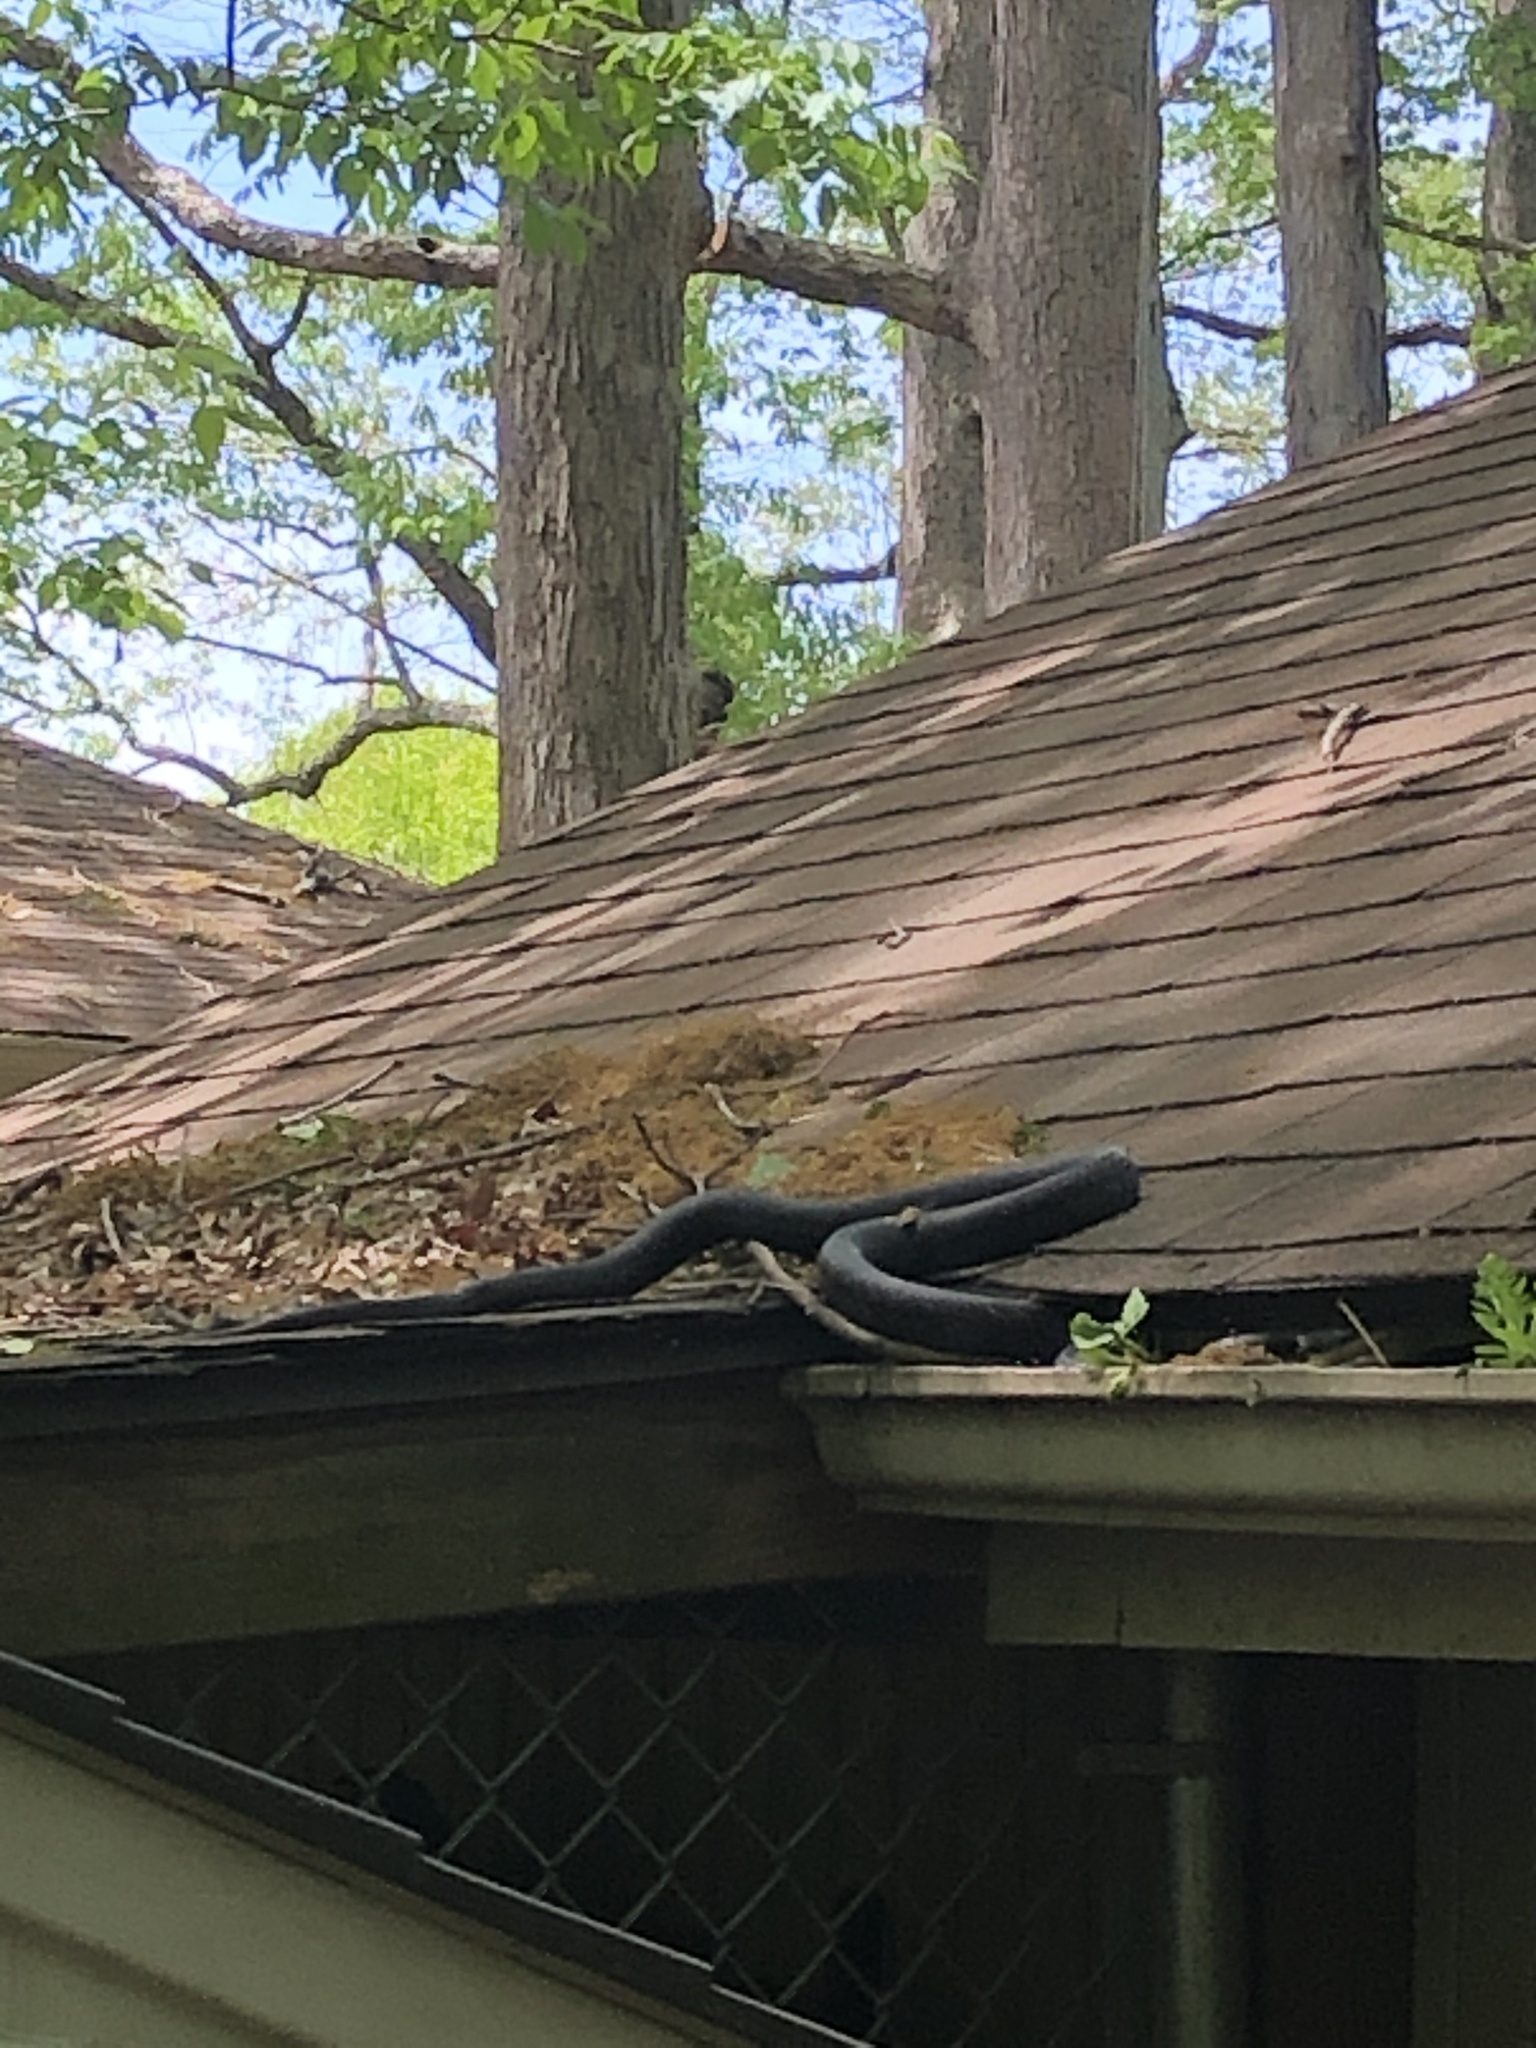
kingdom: Animalia
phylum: Chordata
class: Squamata
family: Colubridae
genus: Pantherophis
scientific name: Pantherophis alleghaniensis
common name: Eastern rat snake
